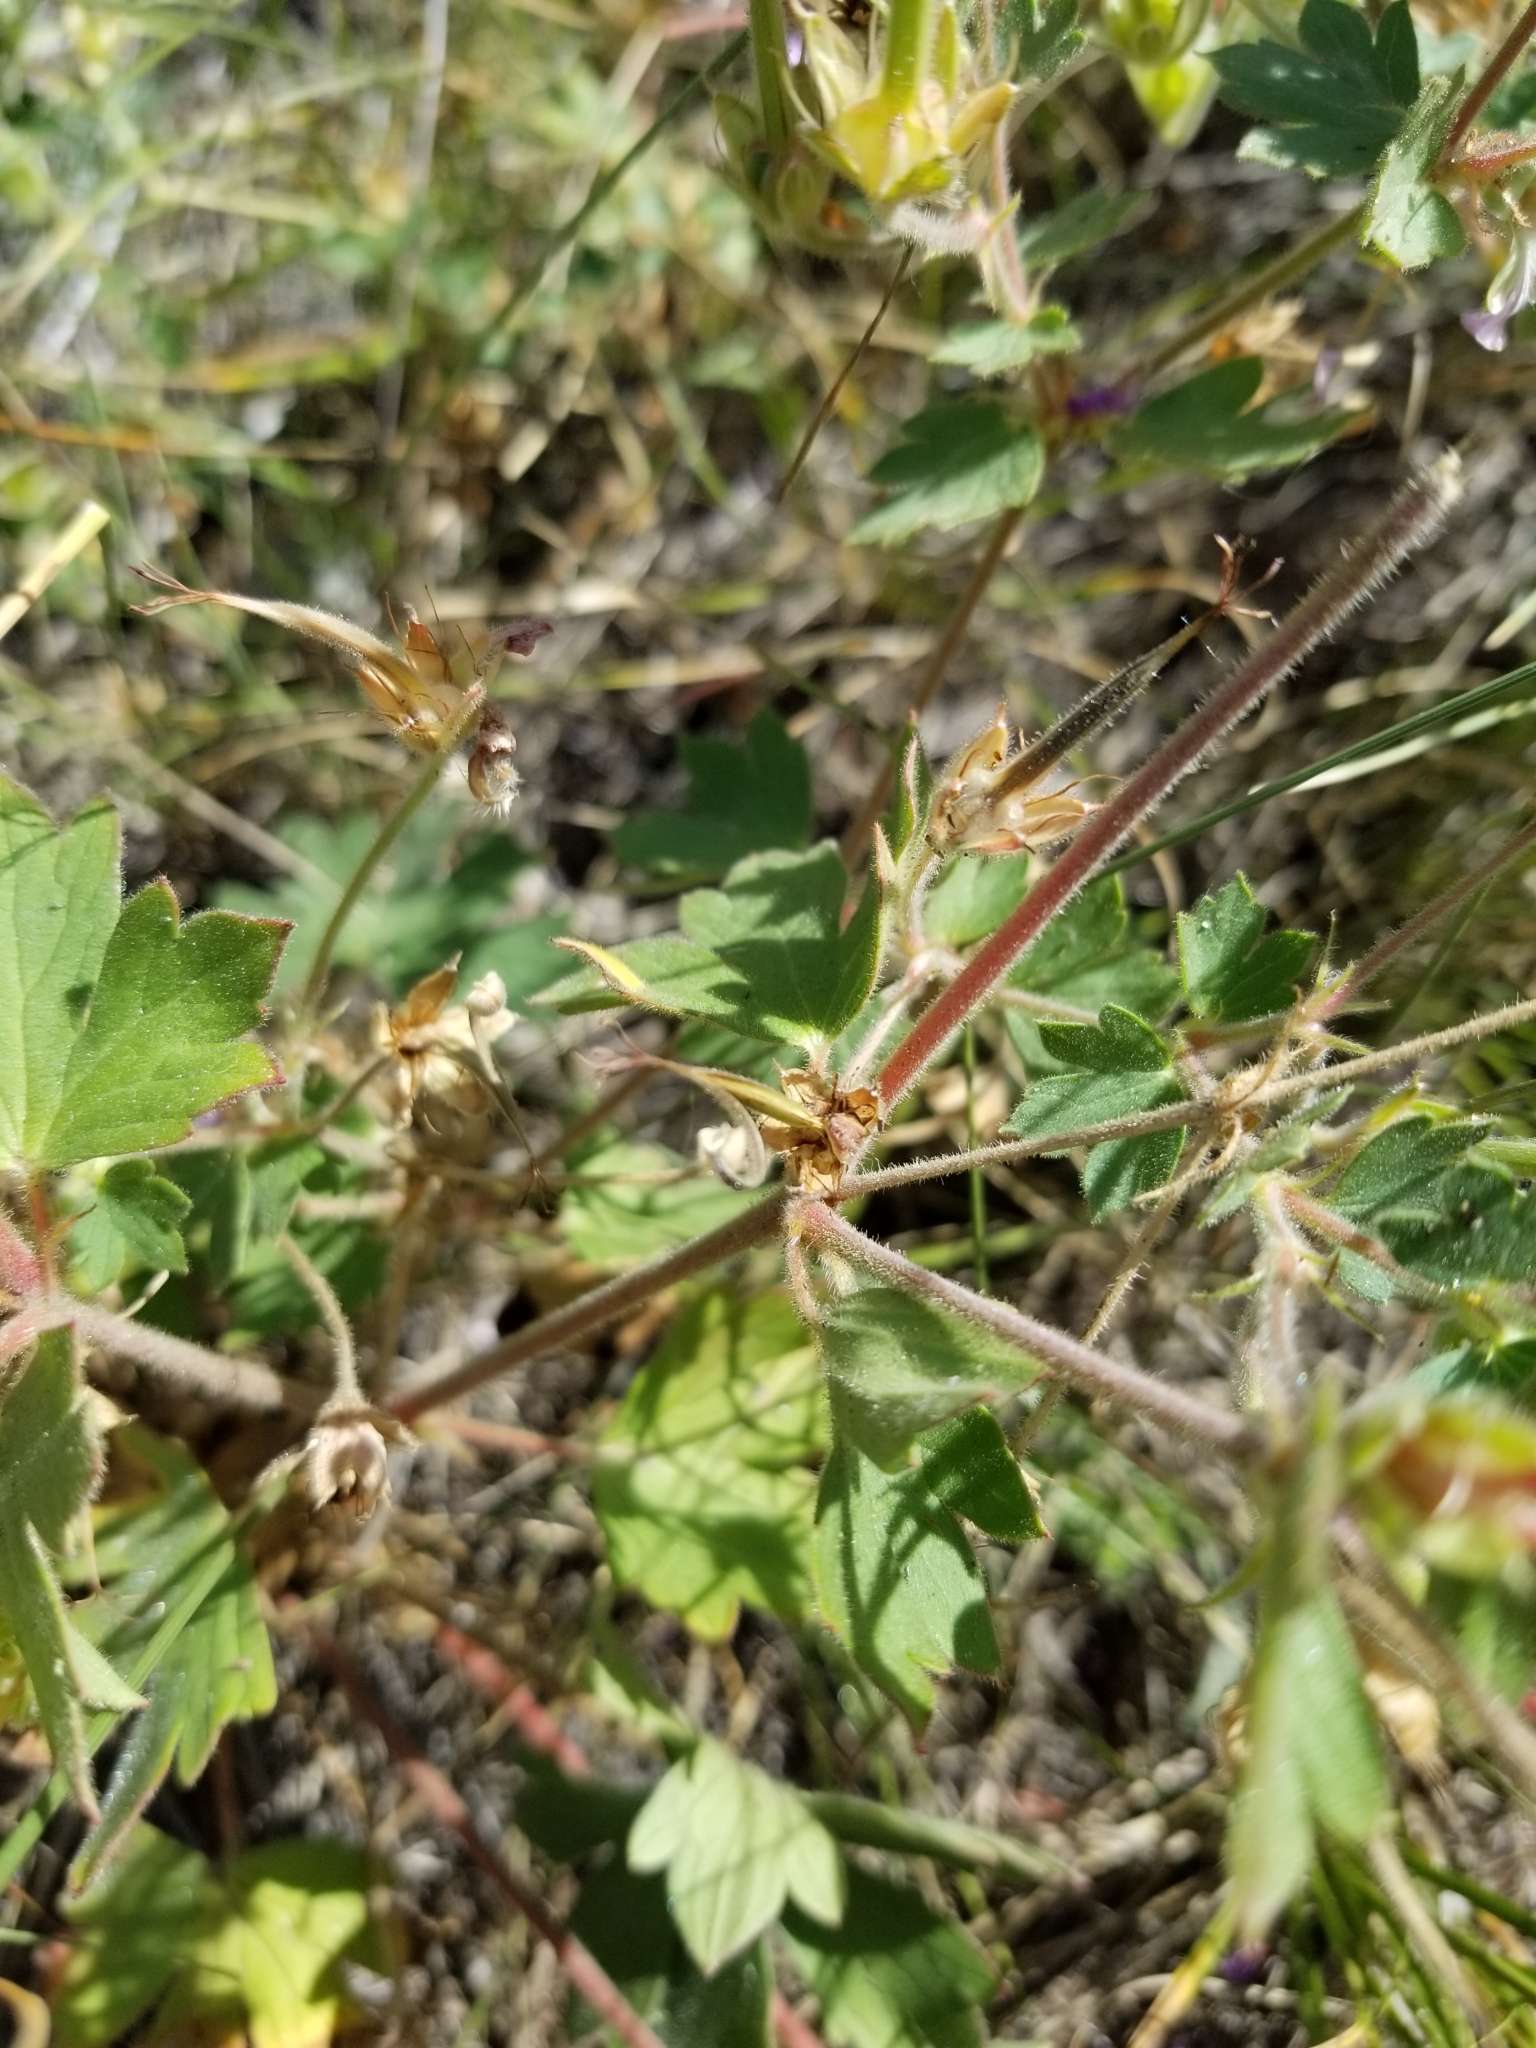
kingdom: Plantae
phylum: Tracheophyta
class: Magnoliopsida
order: Geraniales
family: Geraniaceae
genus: Geranium
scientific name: Geranium caespitosum
